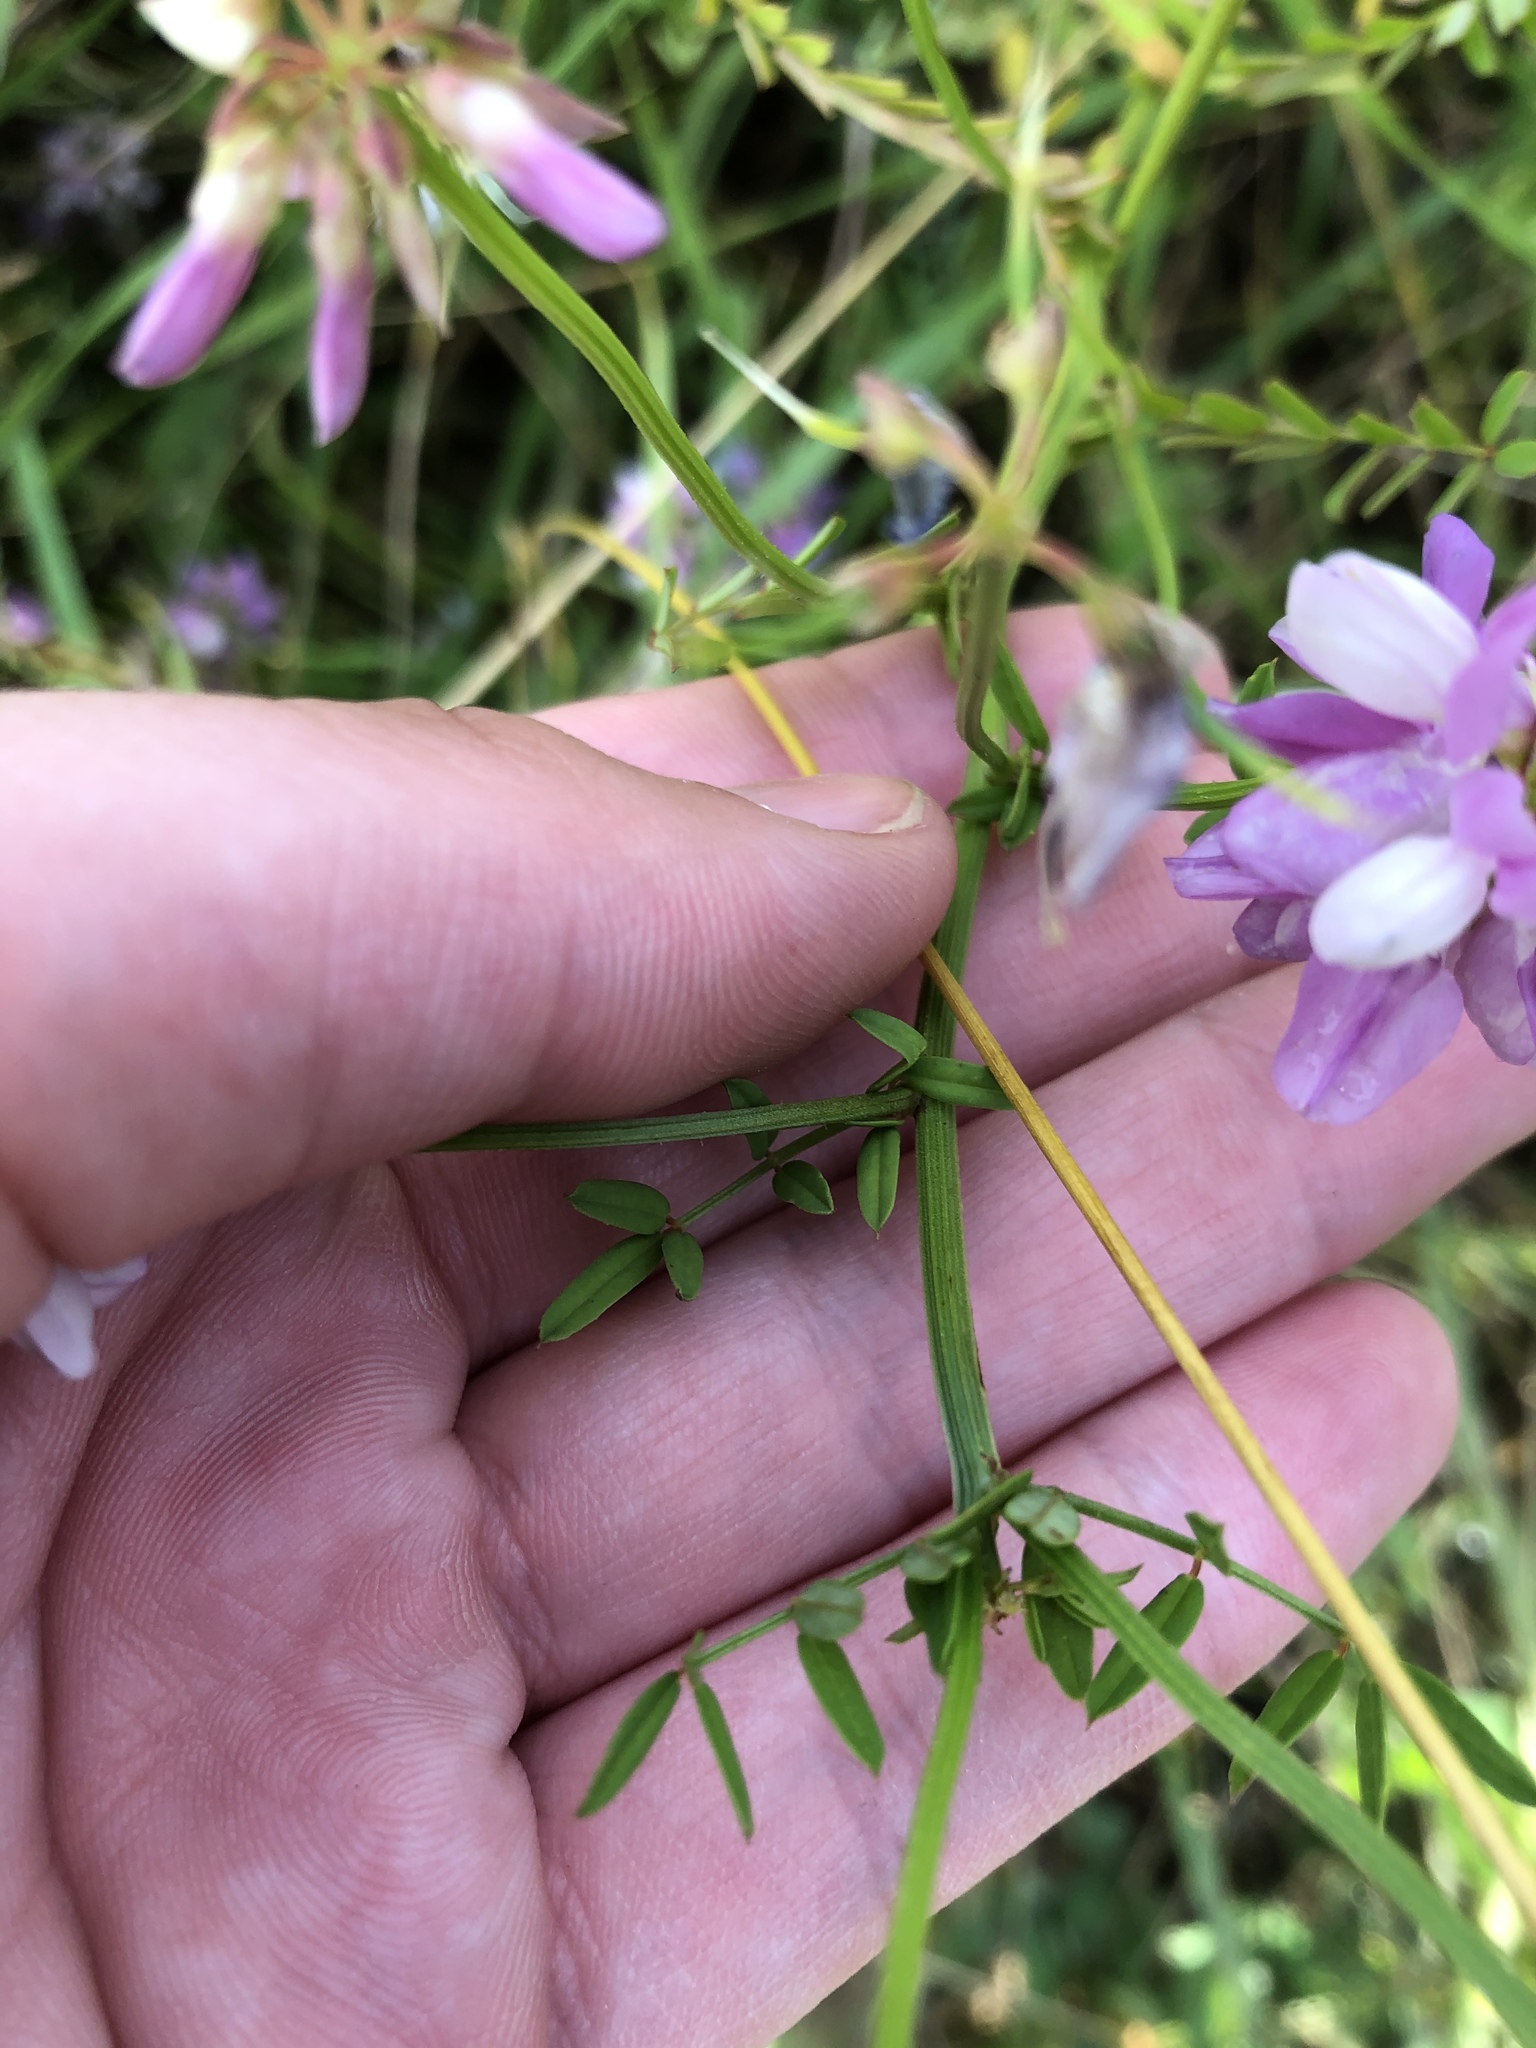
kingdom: Plantae
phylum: Tracheophyta
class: Magnoliopsida
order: Fabales
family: Fabaceae
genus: Coronilla
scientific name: Coronilla varia
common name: Crownvetch
